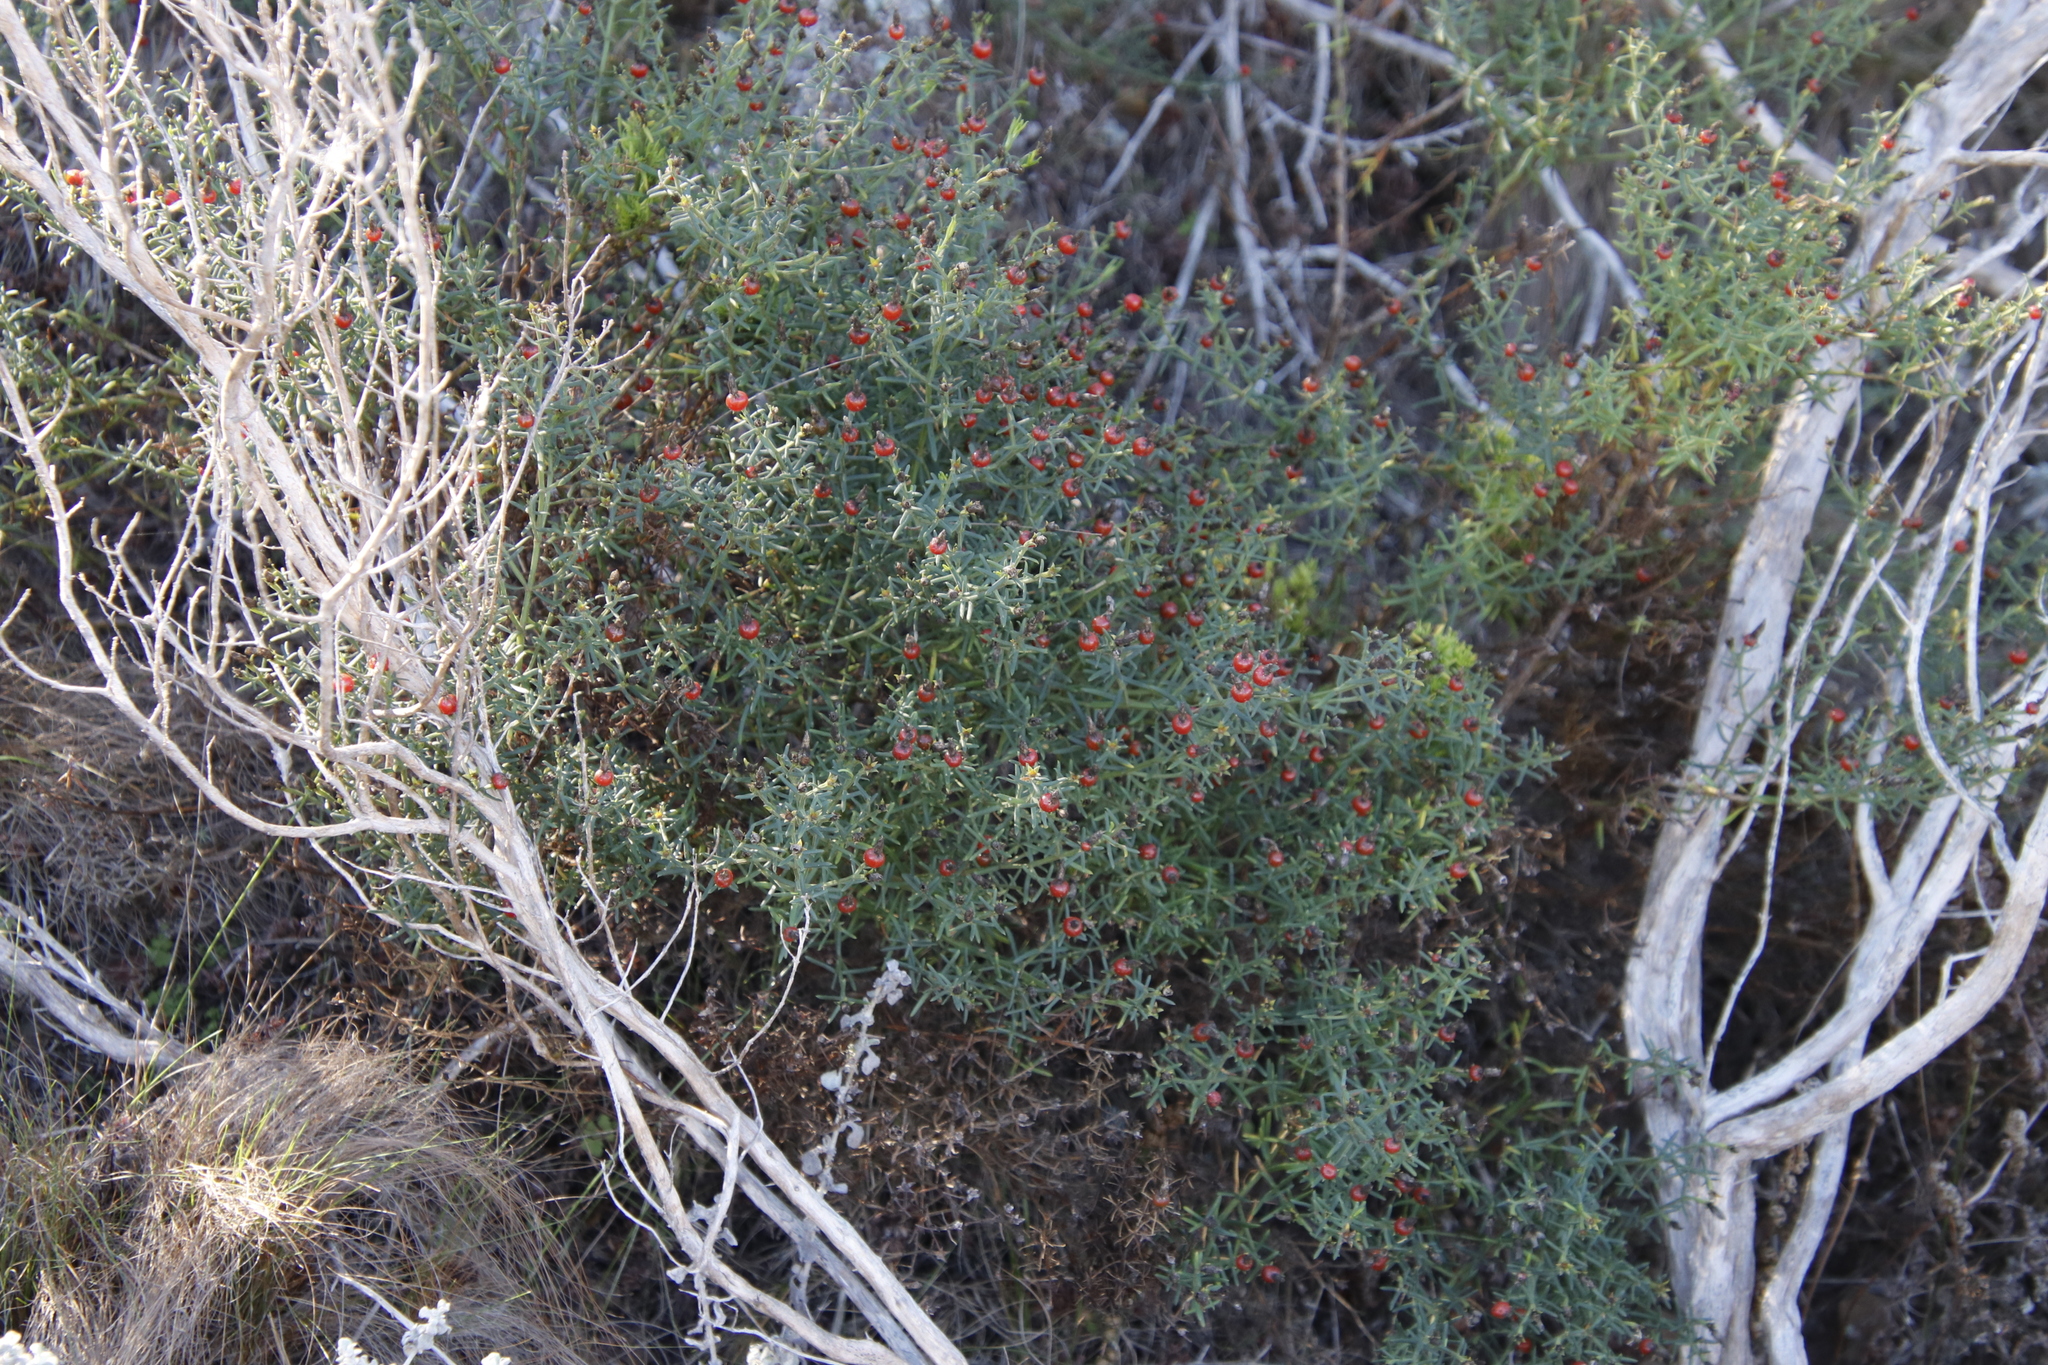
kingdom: Plantae
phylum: Tracheophyta
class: Magnoliopsida
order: Gentianales
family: Gentianaceae
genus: Chironia
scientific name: Chironia baccifera
